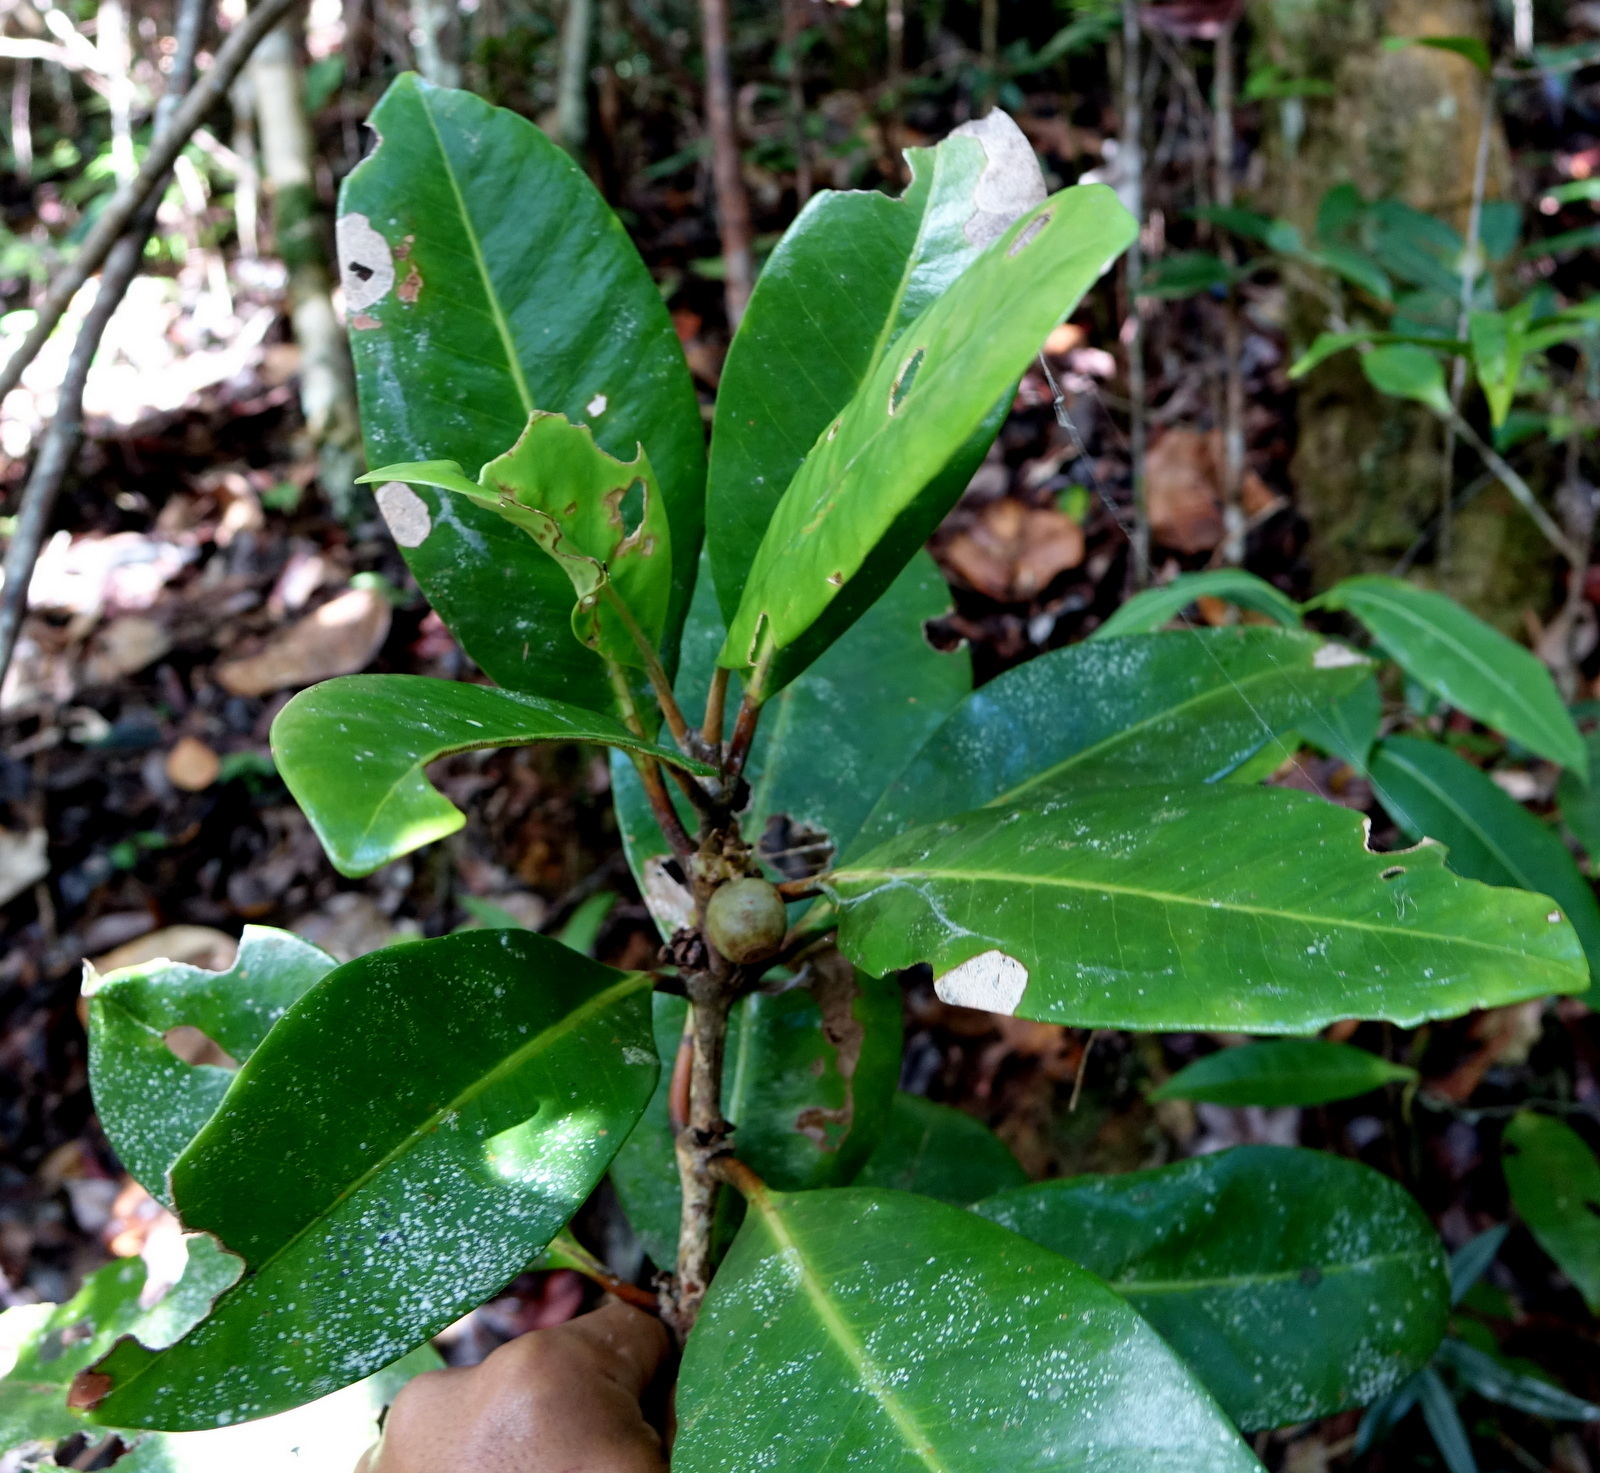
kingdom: Plantae
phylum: Tracheophyta
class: Magnoliopsida
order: Gentianales
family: Rubiaceae
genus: Coffea
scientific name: Coffea richardii
